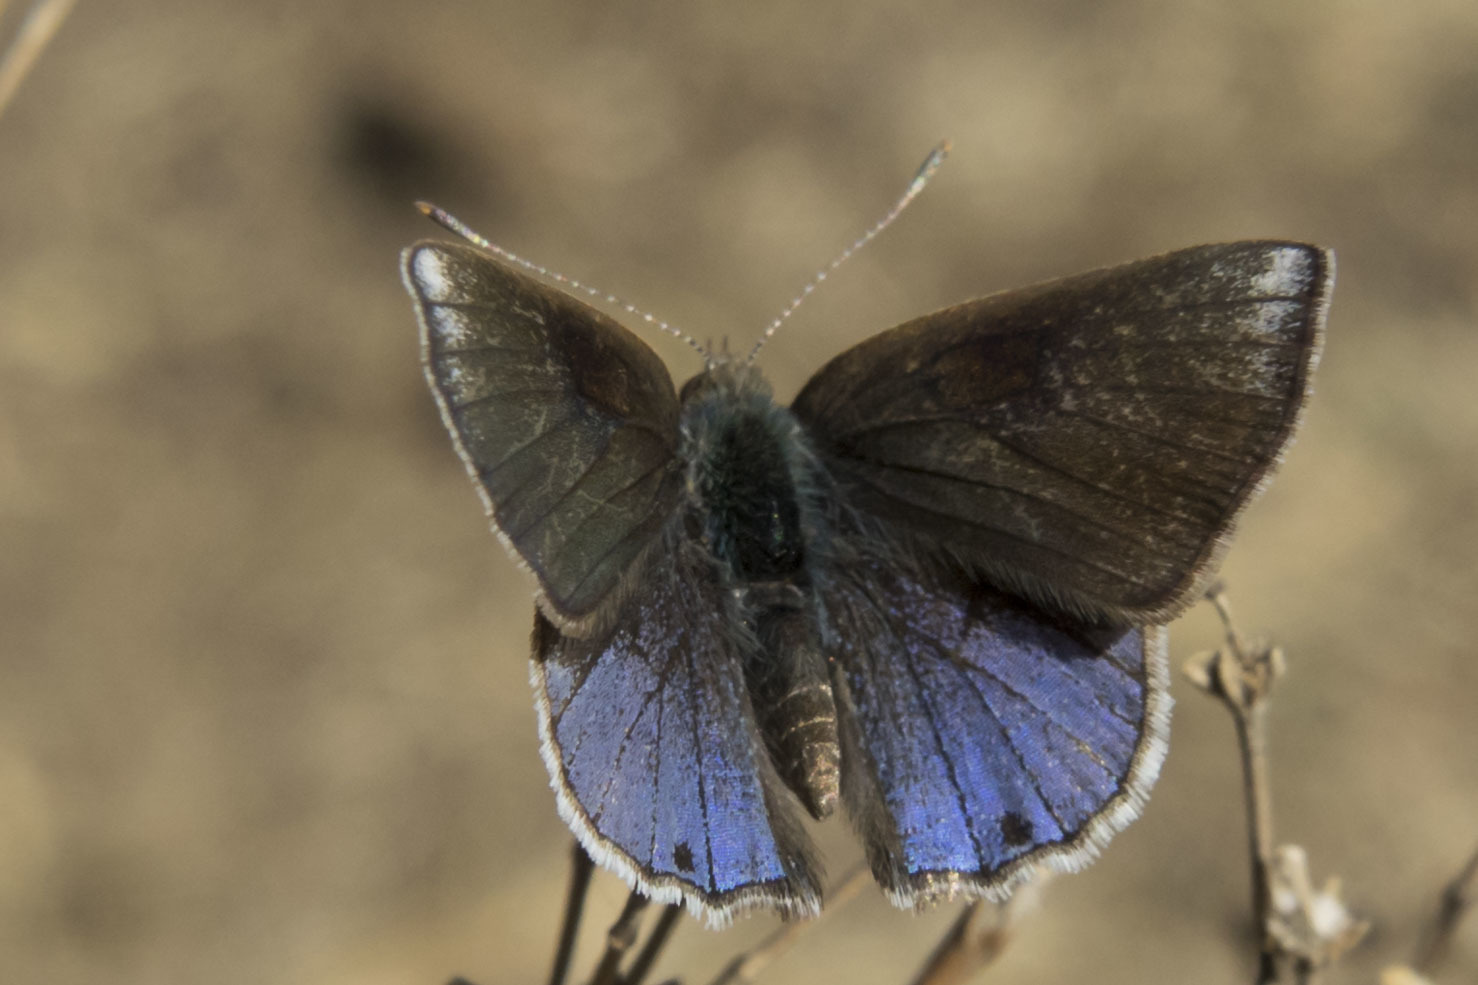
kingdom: Animalia
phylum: Arthropoda
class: Insecta
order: Lepidoptera
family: Lycaenidae
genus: Strymon
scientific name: Strymon bazochii
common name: Lantana scrub-hairstreak
